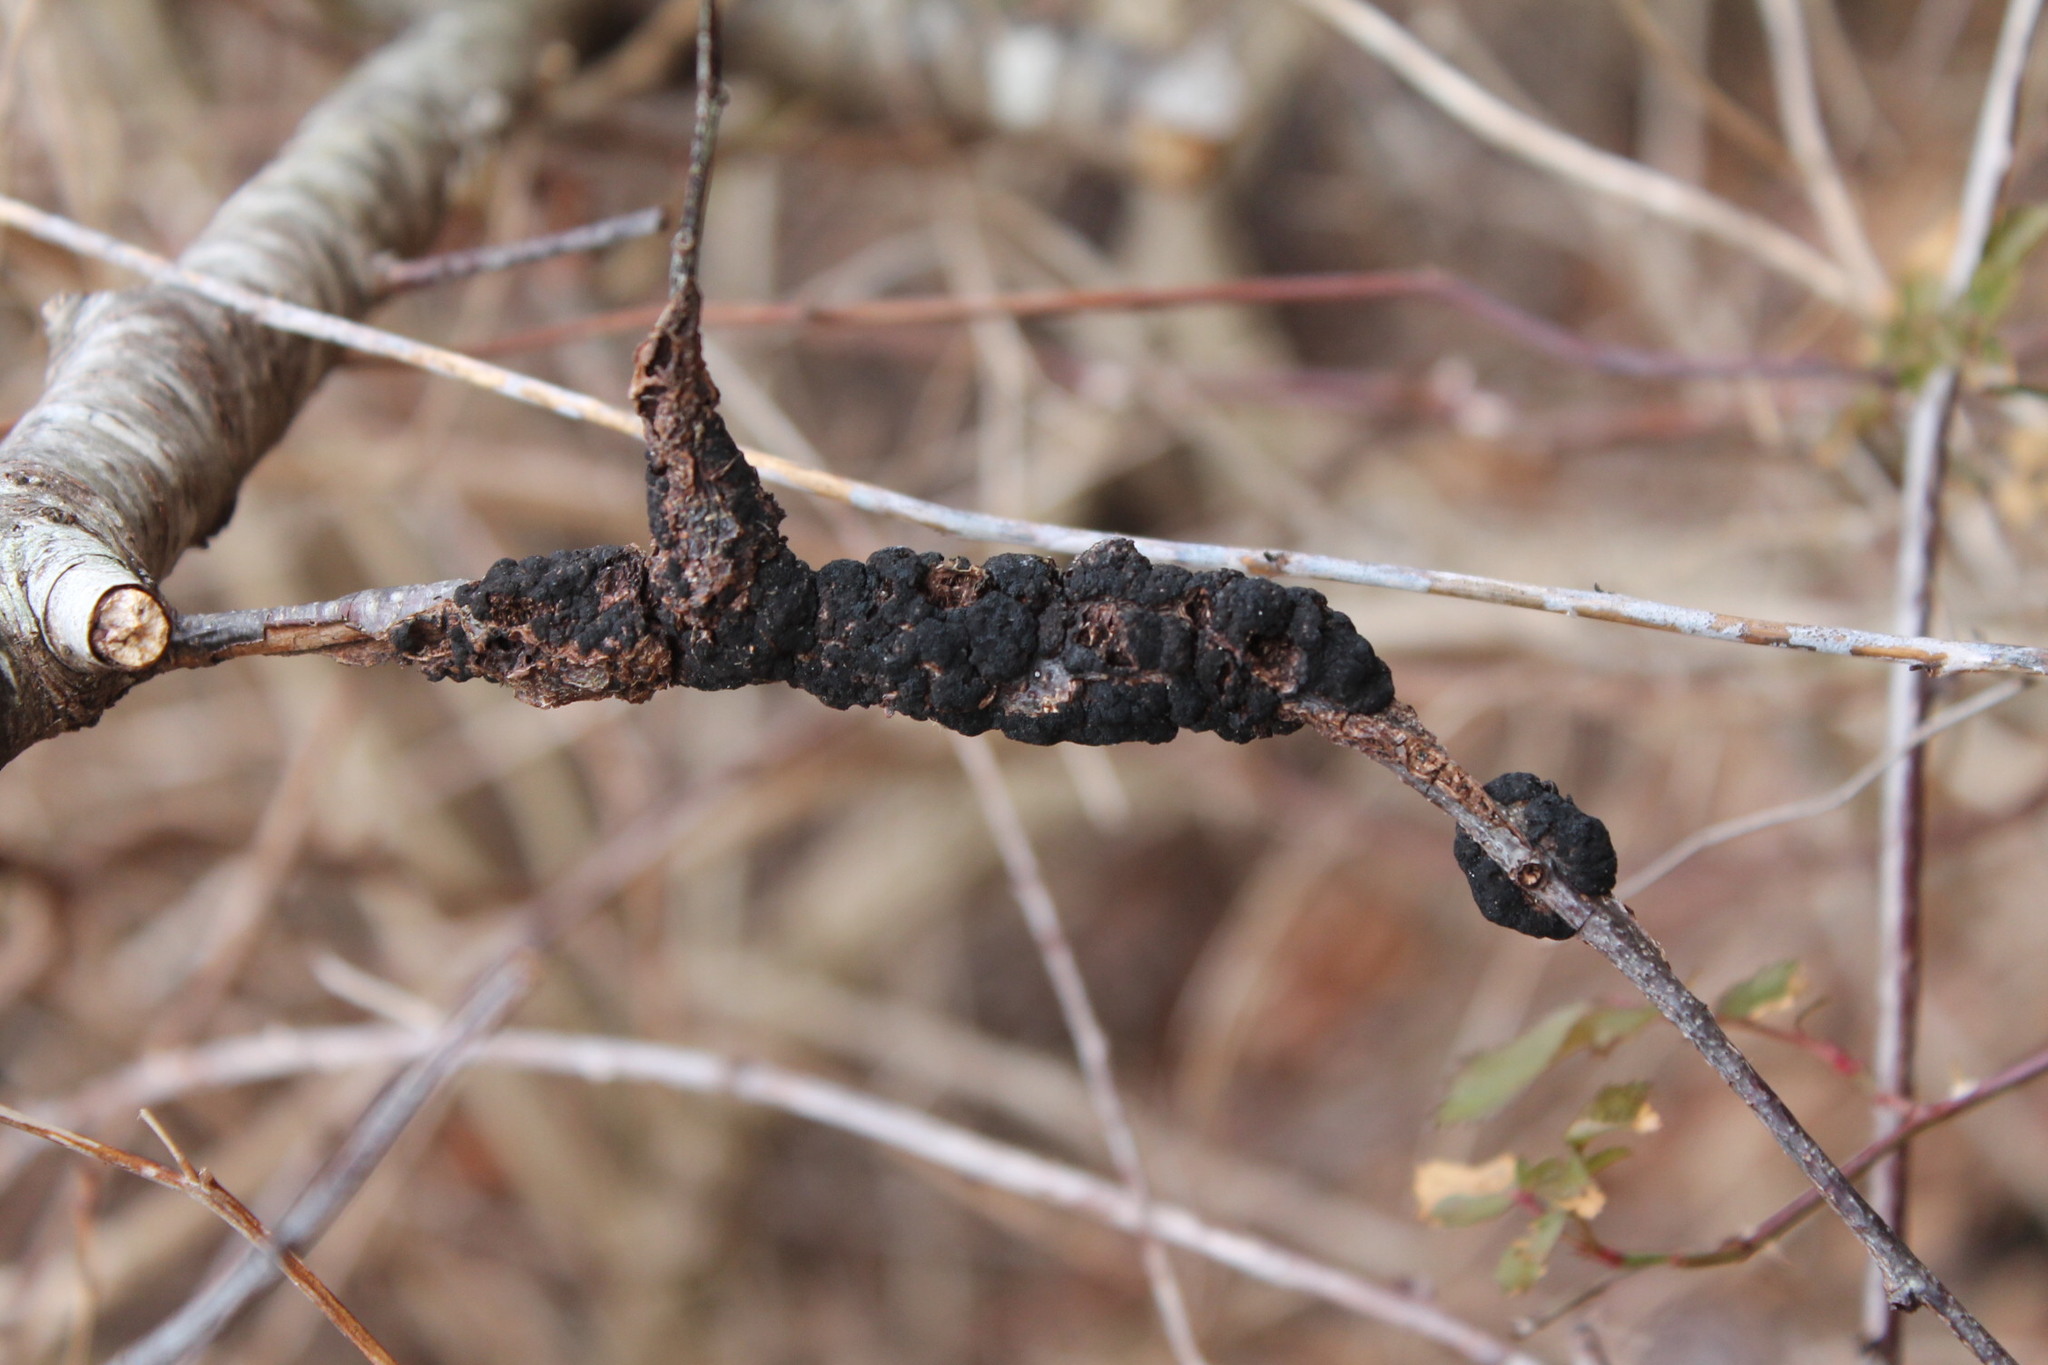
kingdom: Fungi
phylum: Ascomycota
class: Dothideomycetes
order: Venturiales
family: Venturiaceae
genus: Apiosporina
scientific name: Apiosporina morbosa
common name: Black knot
